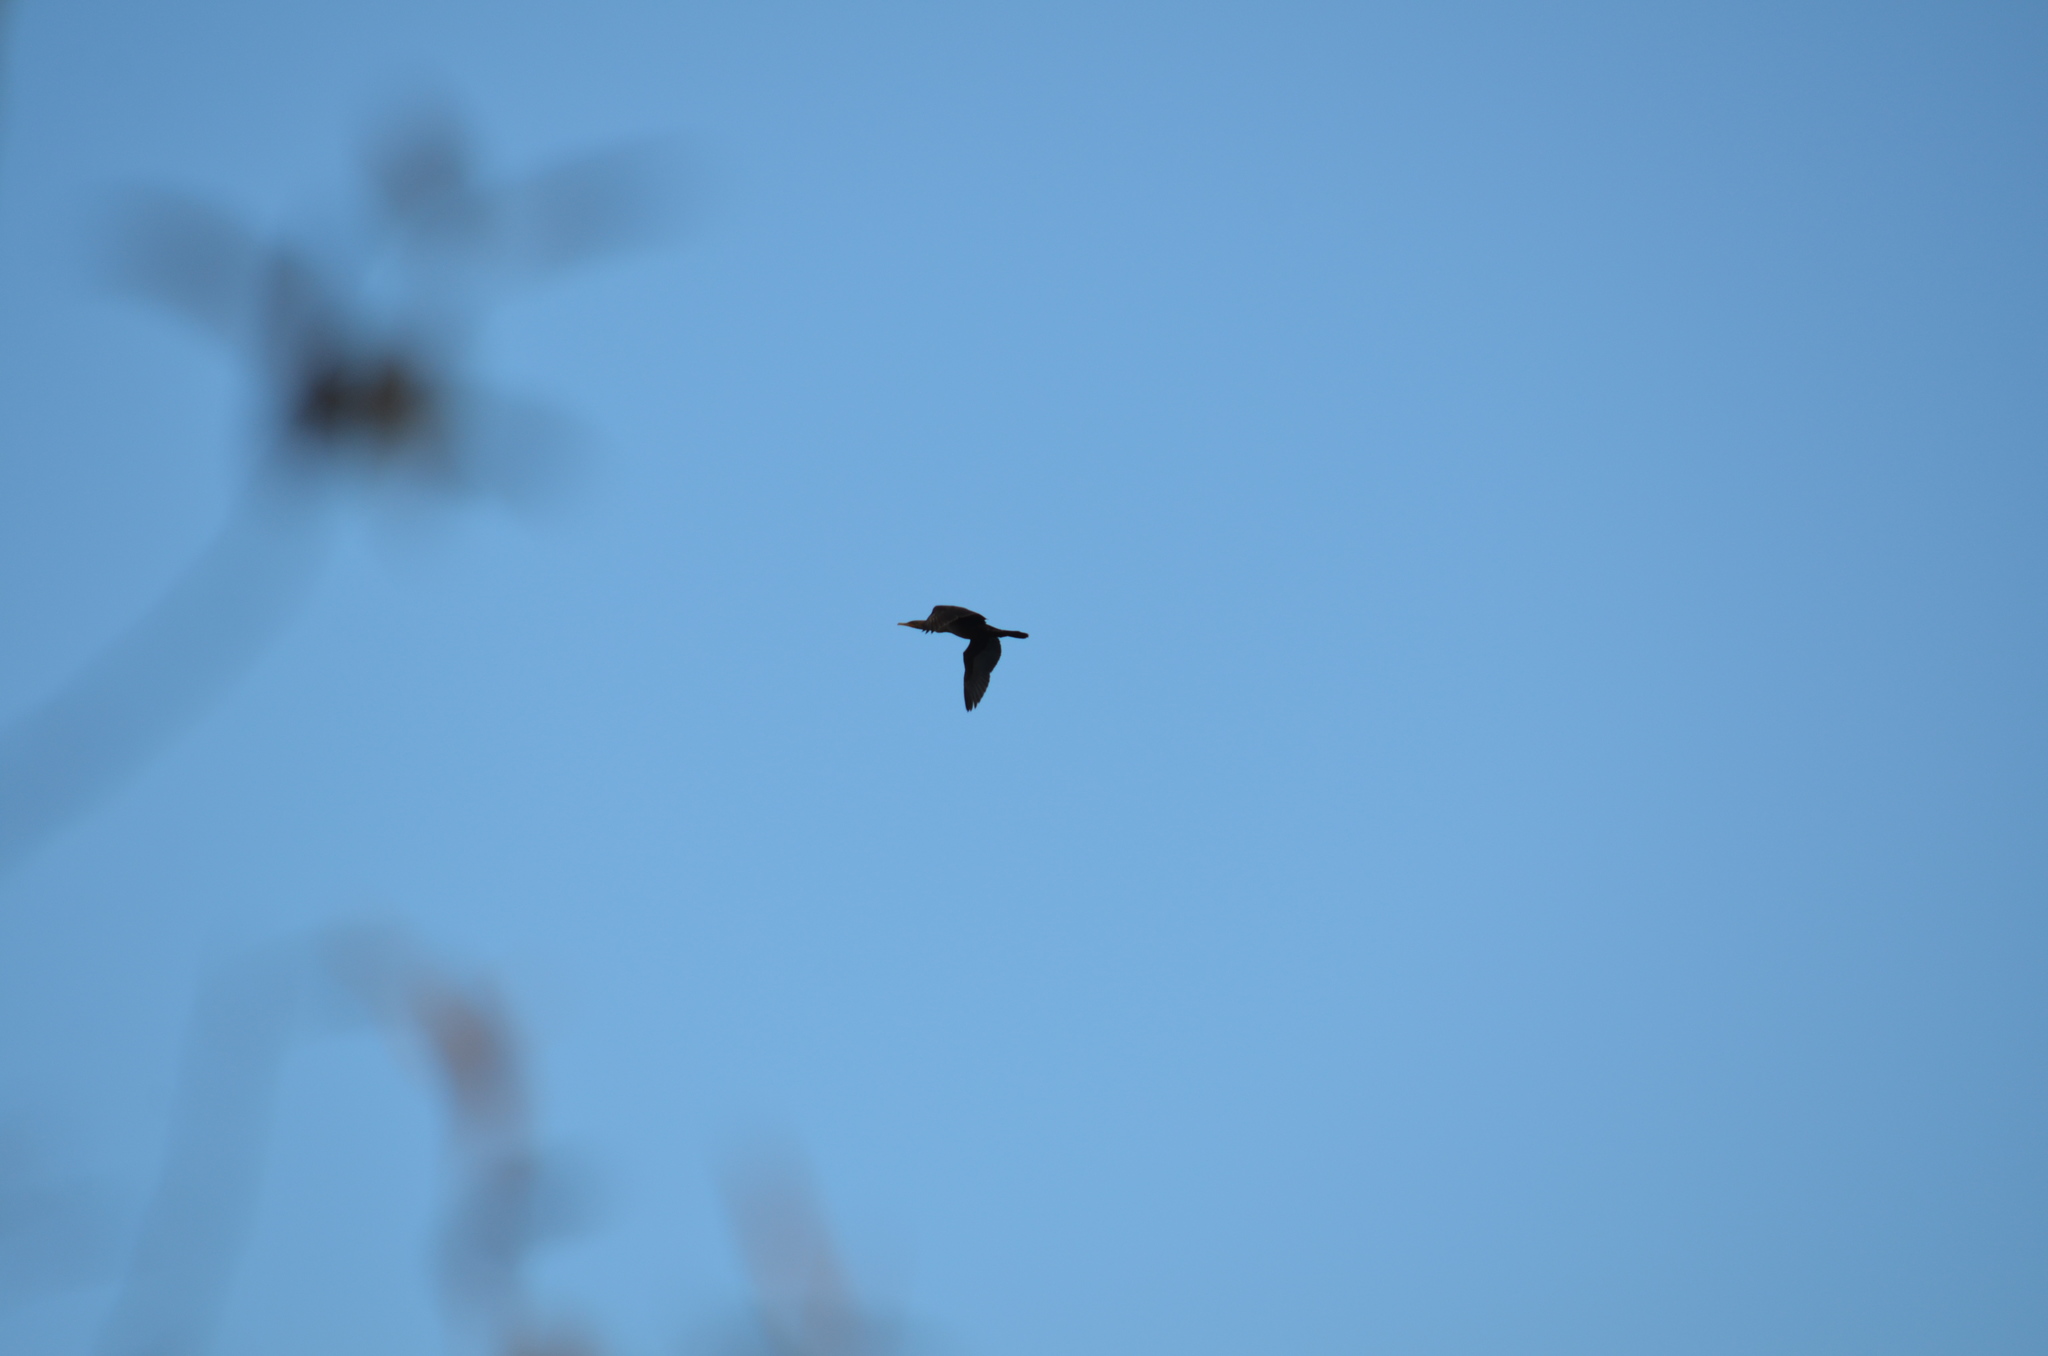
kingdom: Animalia
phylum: Chordata
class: Aves
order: Suliformes
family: Phalacrocoracidae
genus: Phalacrocorax
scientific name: Phalacrocorax auritus
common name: Double-crested cormorant
